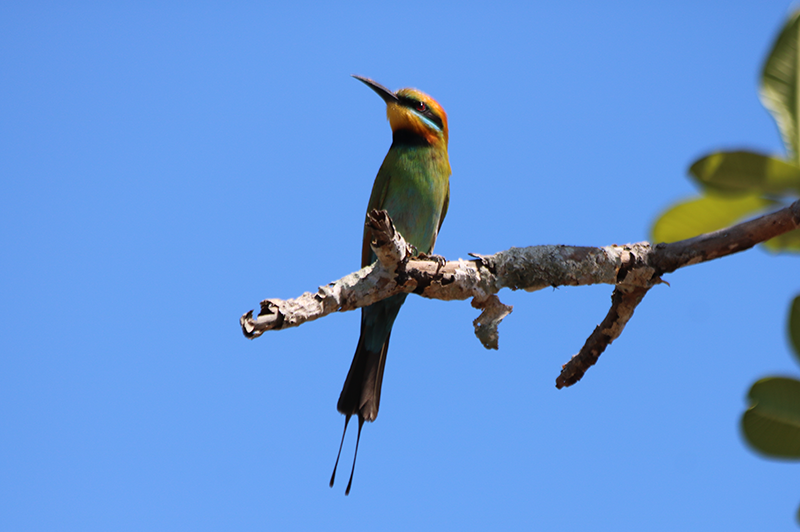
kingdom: Animalia
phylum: Chordata
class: Aves
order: Coraciiformes
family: Meropidae
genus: Merops
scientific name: Merops ornatus
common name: Rainbow bee-eater
